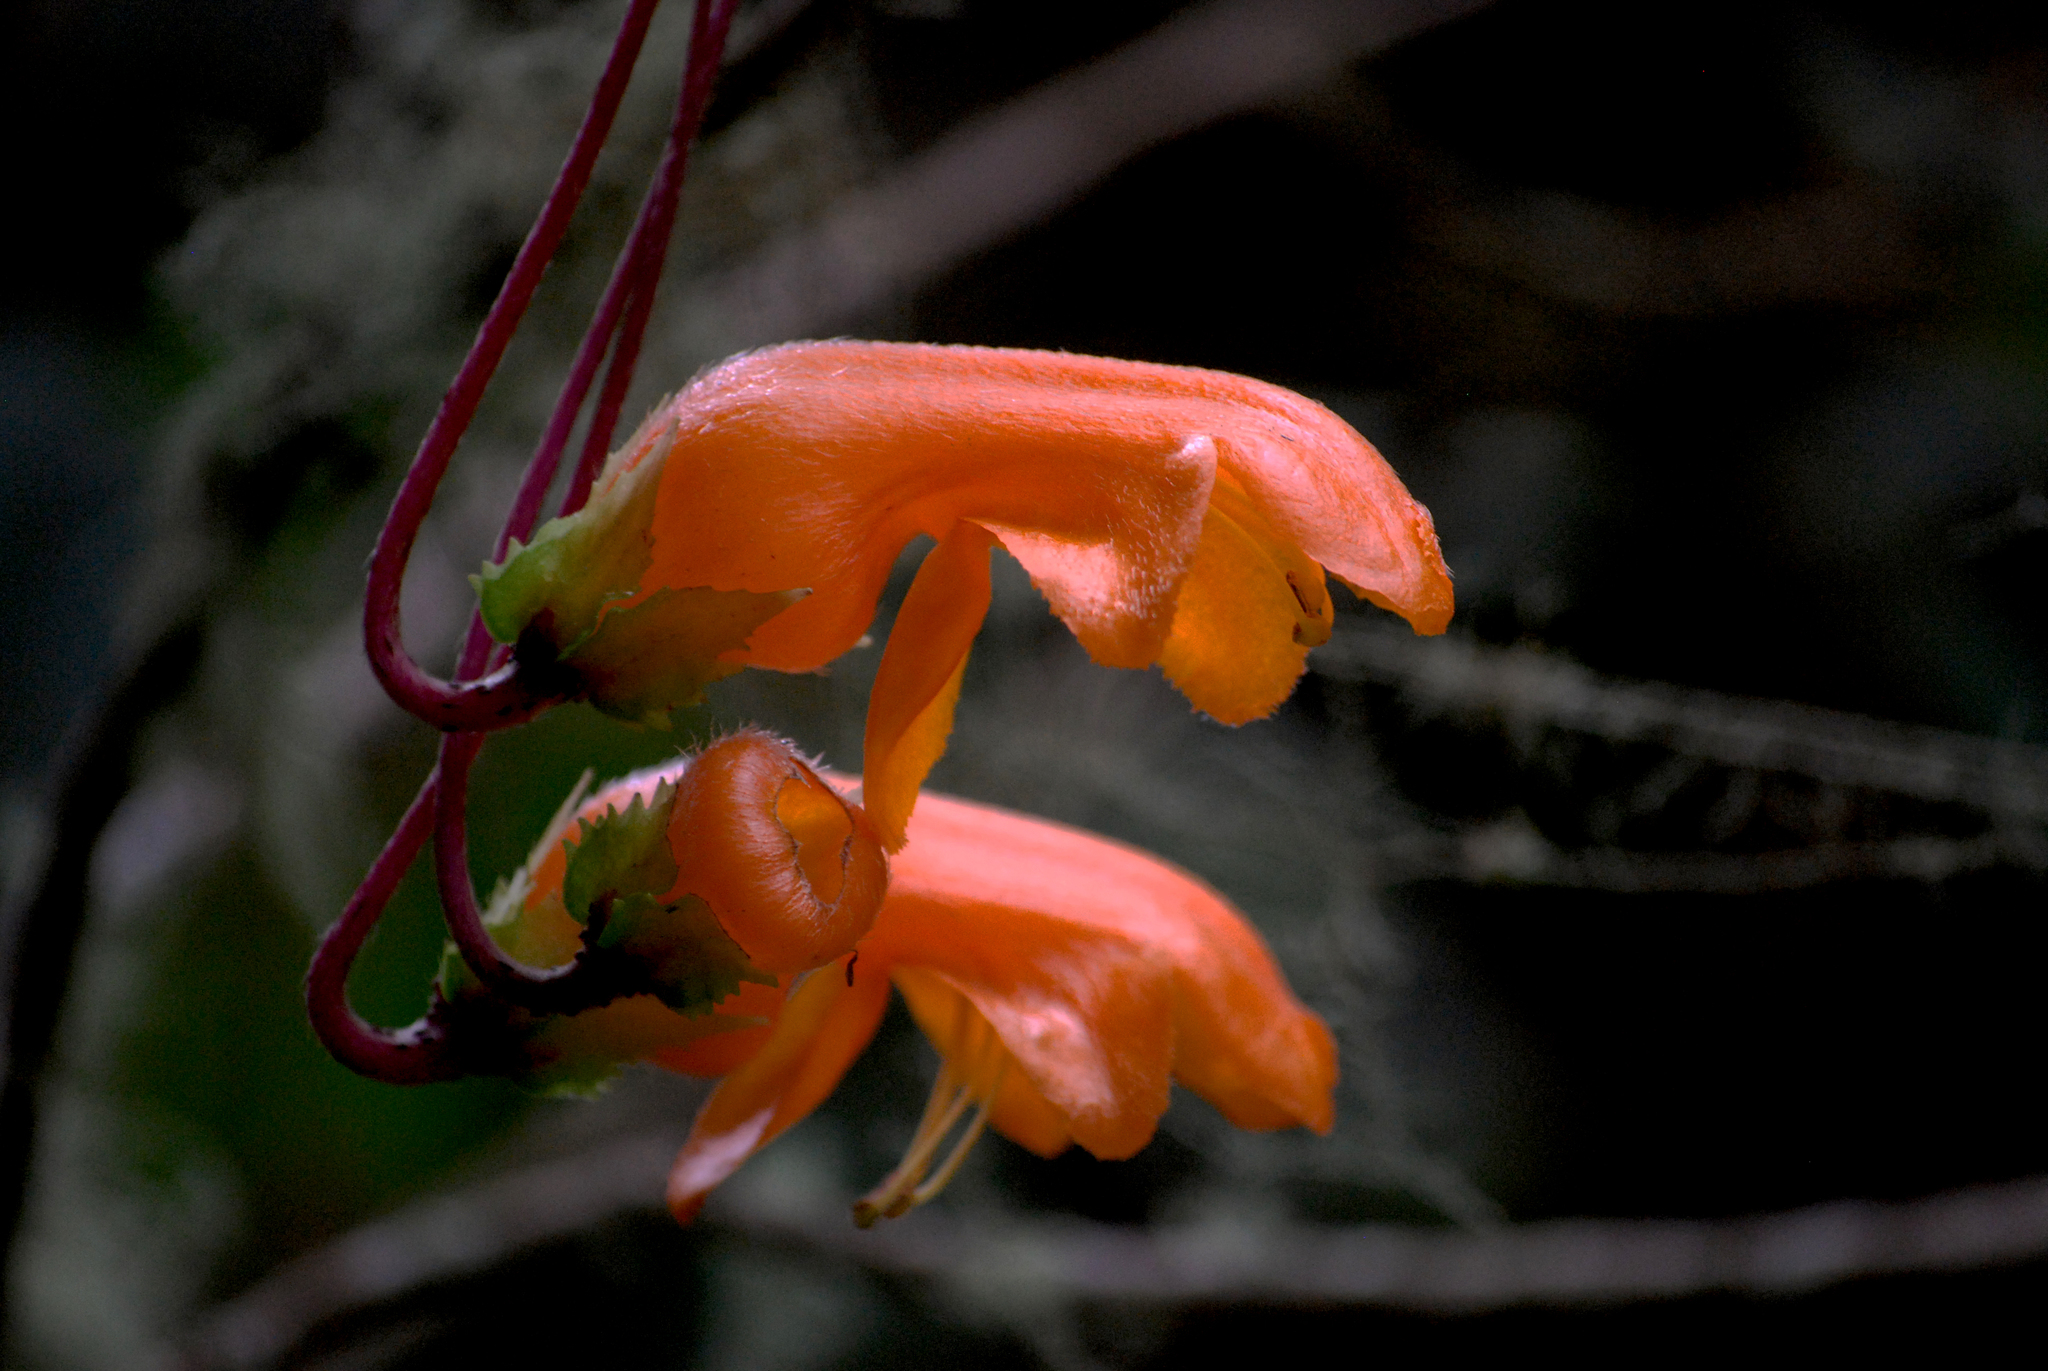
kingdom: Plantae
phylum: Tracheophyta
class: Magnoliopsida
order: Lamiales
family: Gesneriaceae
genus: Columnea
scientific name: Columnea strigosa
